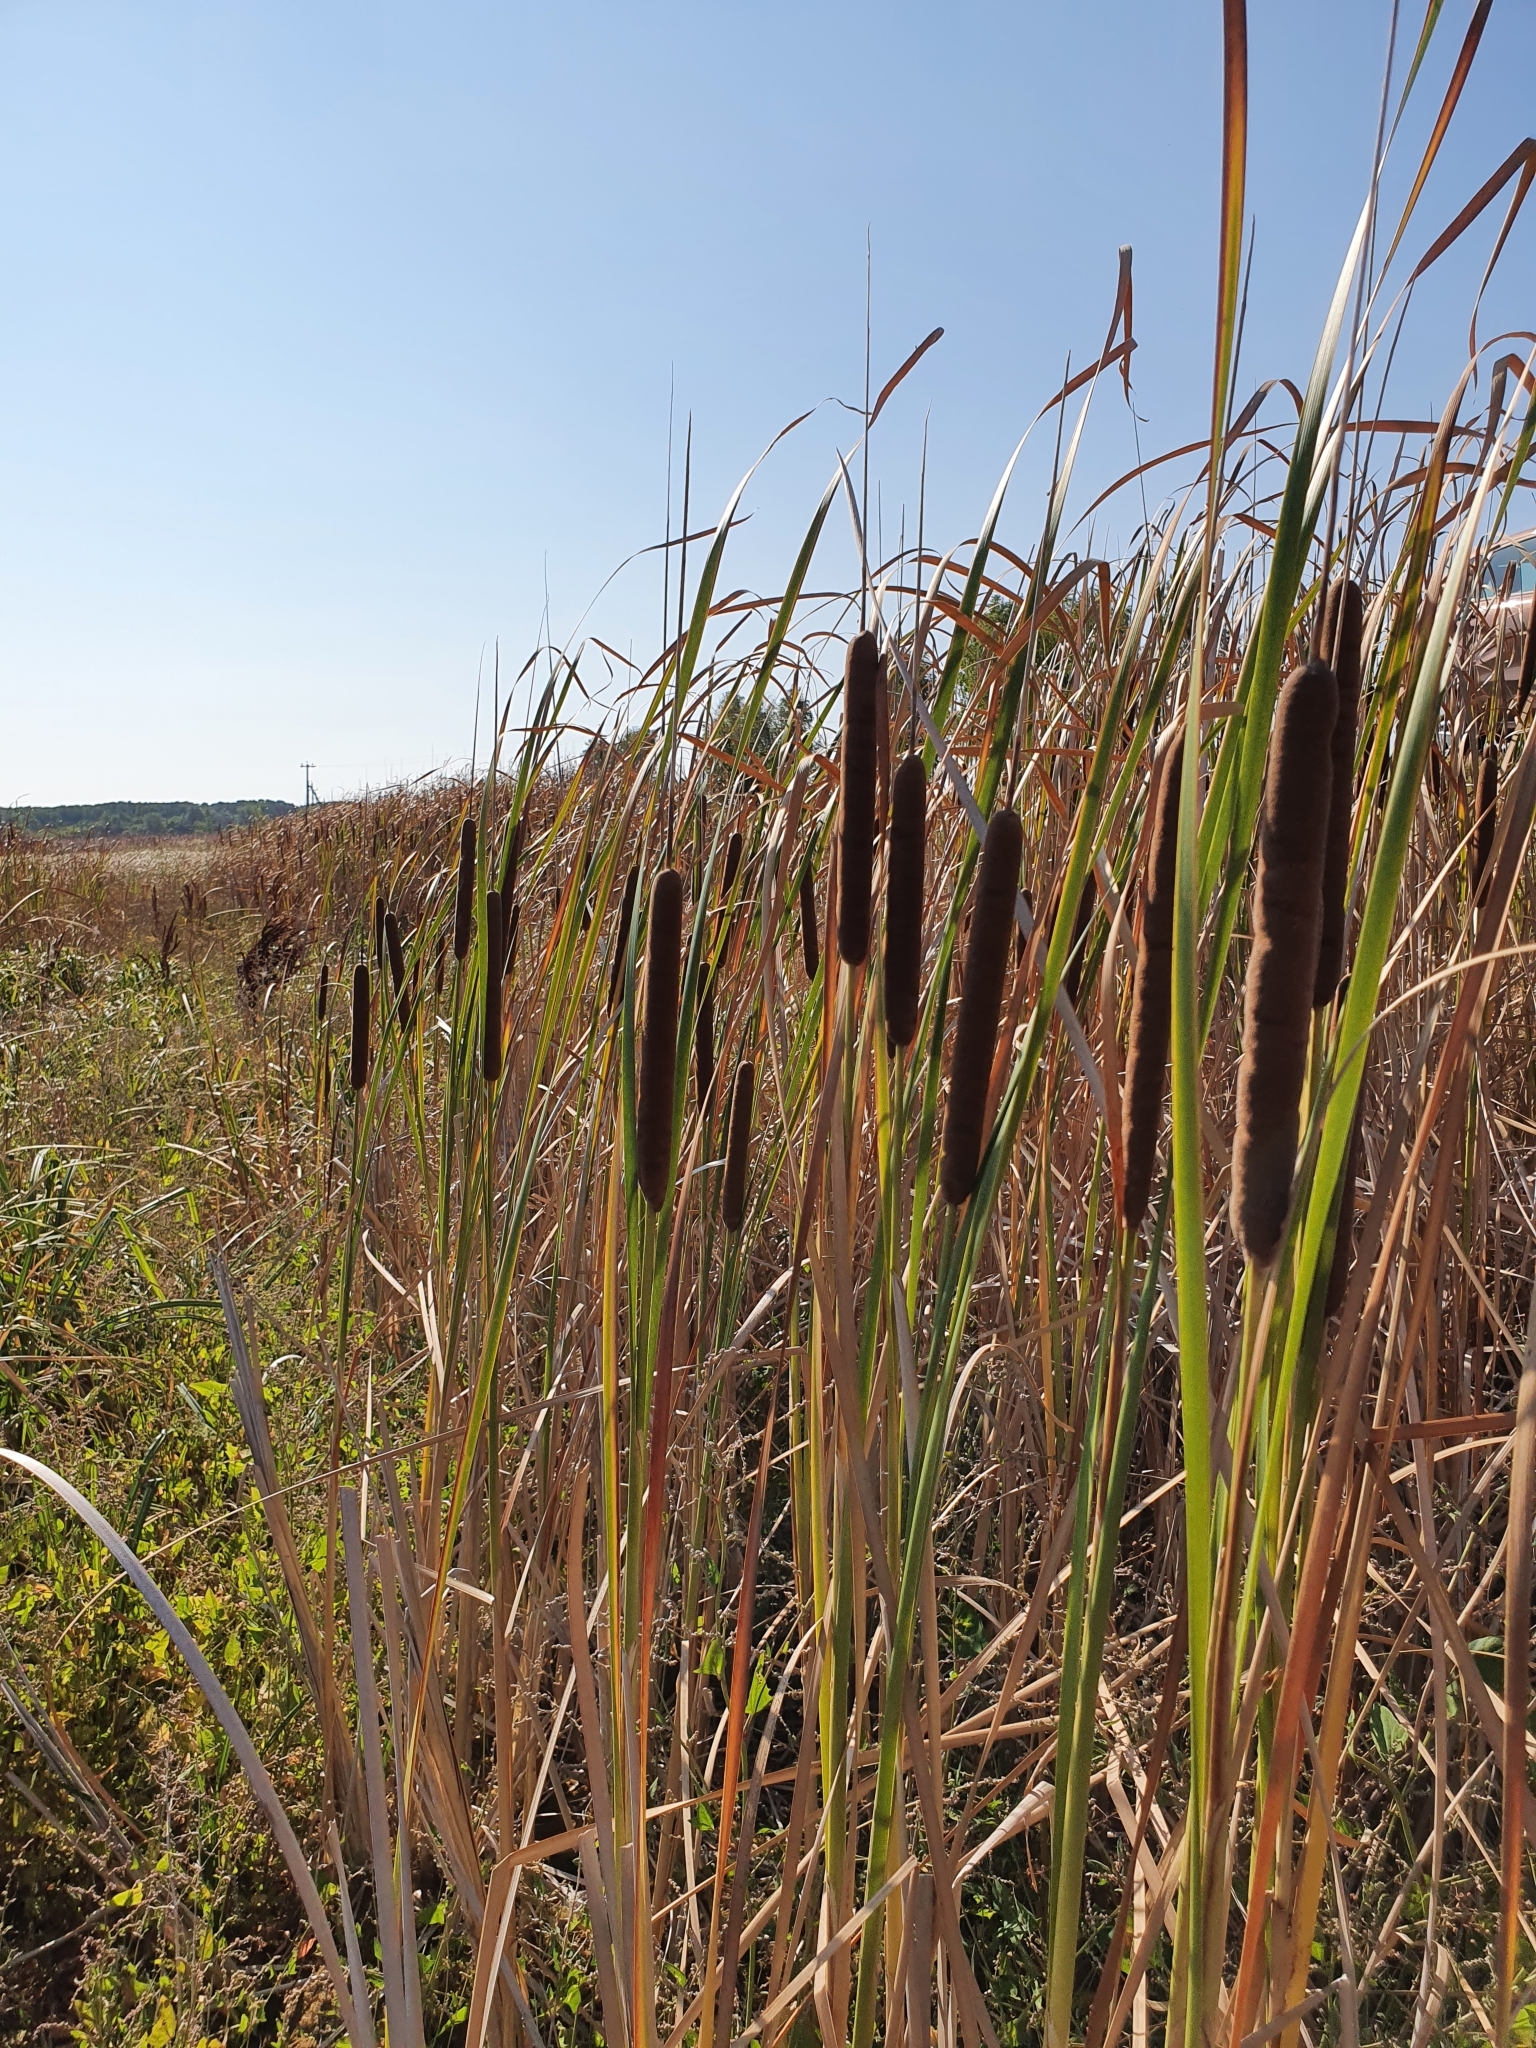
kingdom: Plantae
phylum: Tracheophyta
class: Liliopsida
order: Poales
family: Typhaceae
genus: Typha
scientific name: Typha angustifolia
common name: Lesser bulrush
